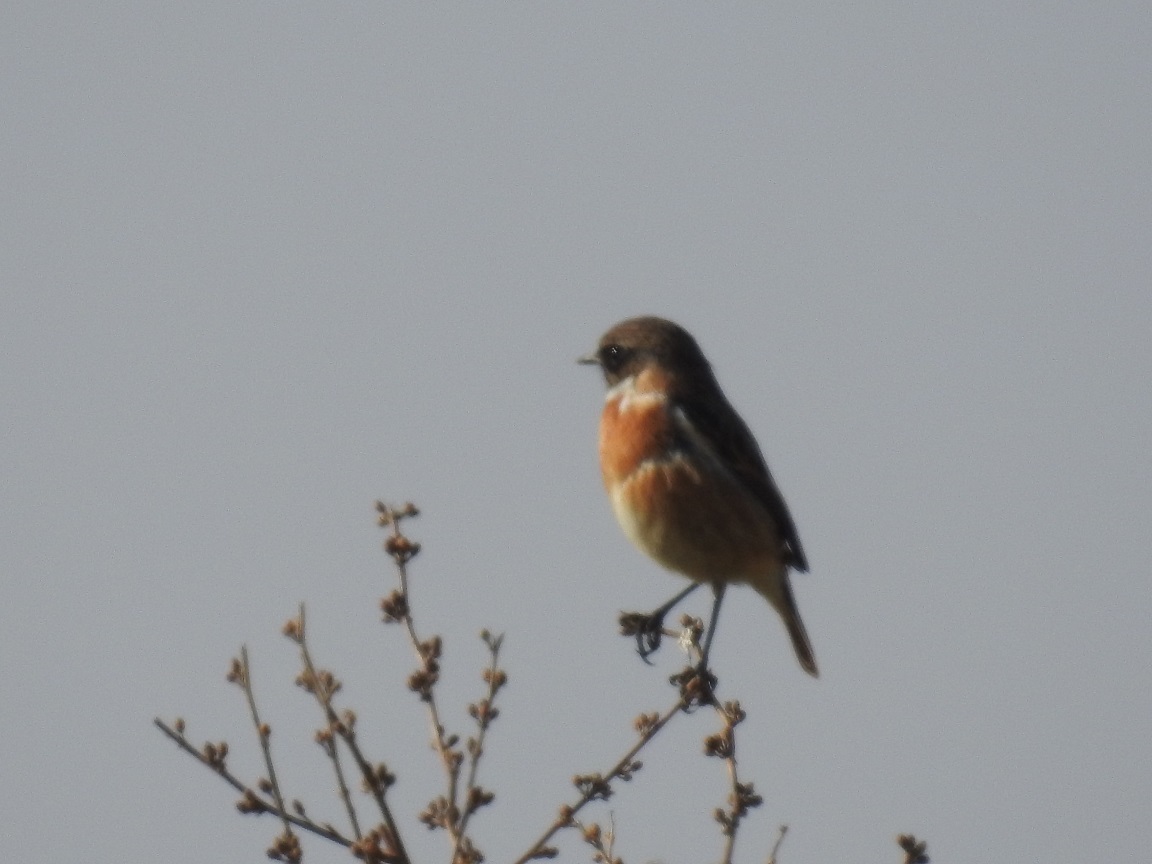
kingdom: Animalia
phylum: Chordata
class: Aves
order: Passeriformes
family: Muscicapidae
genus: Saxicola
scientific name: Saxicola rubicola
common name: European stonechat
